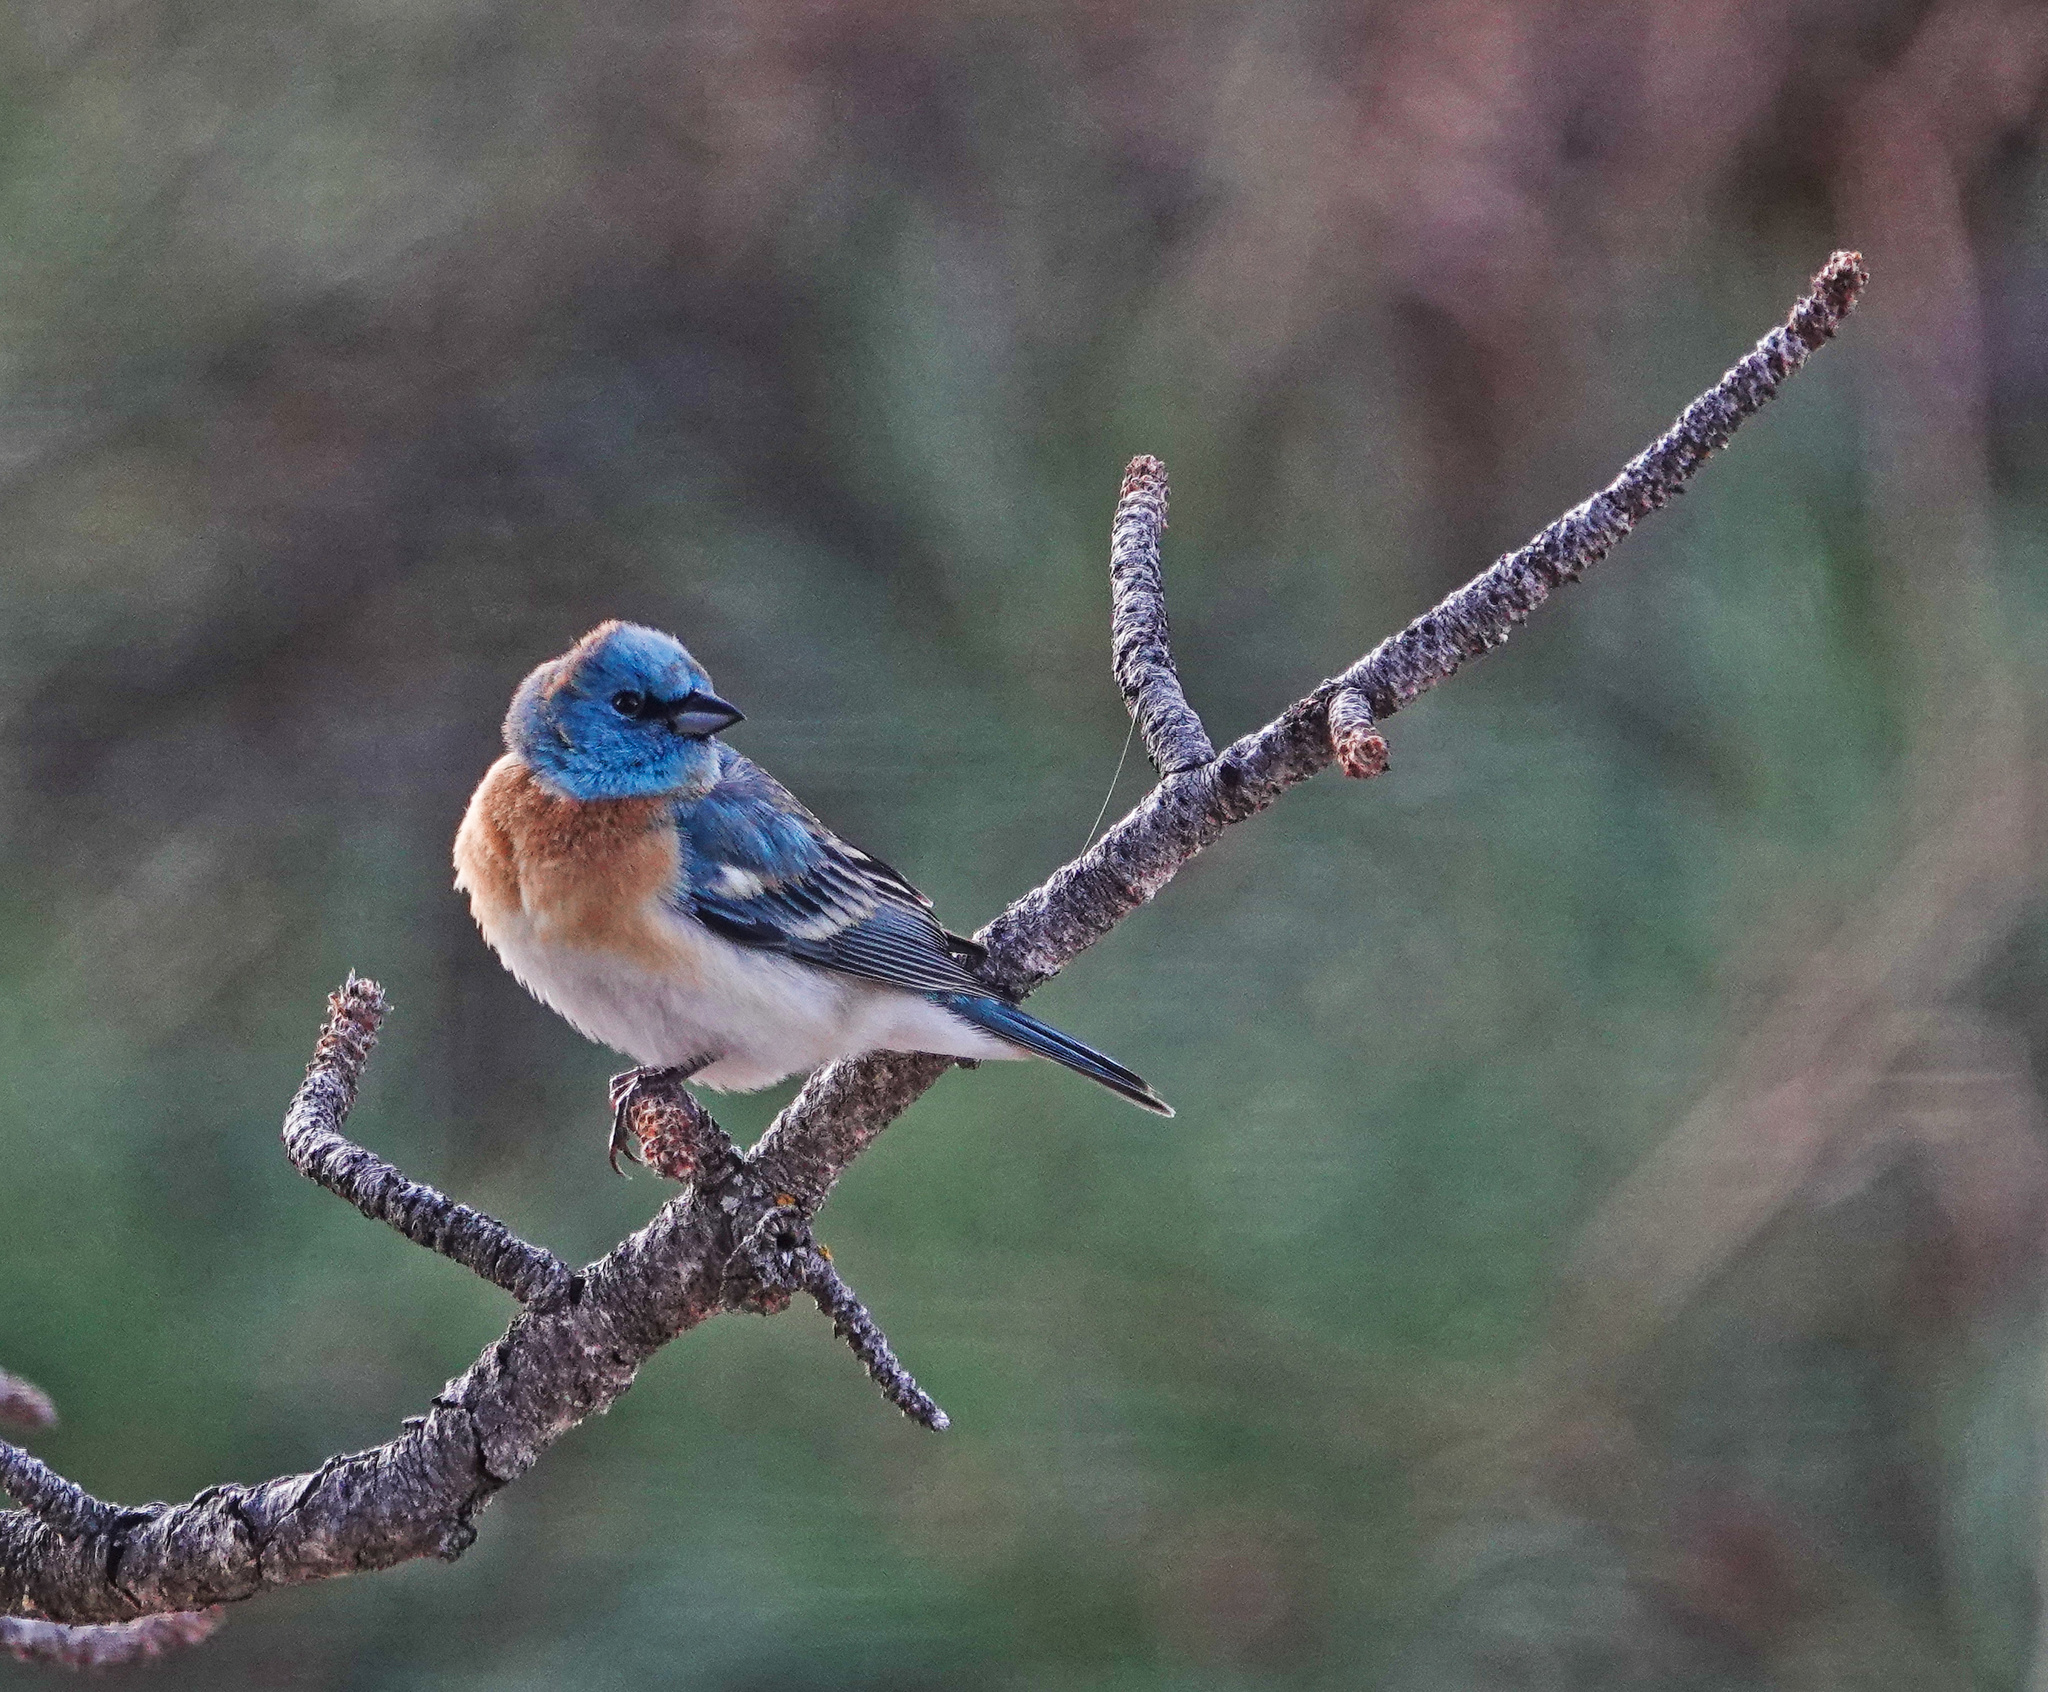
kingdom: Animalia
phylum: Chordata
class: Aves
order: Passeriformes
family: Cardinalidae
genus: Passerina
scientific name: Passerina amoena
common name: Lazuli bunting
